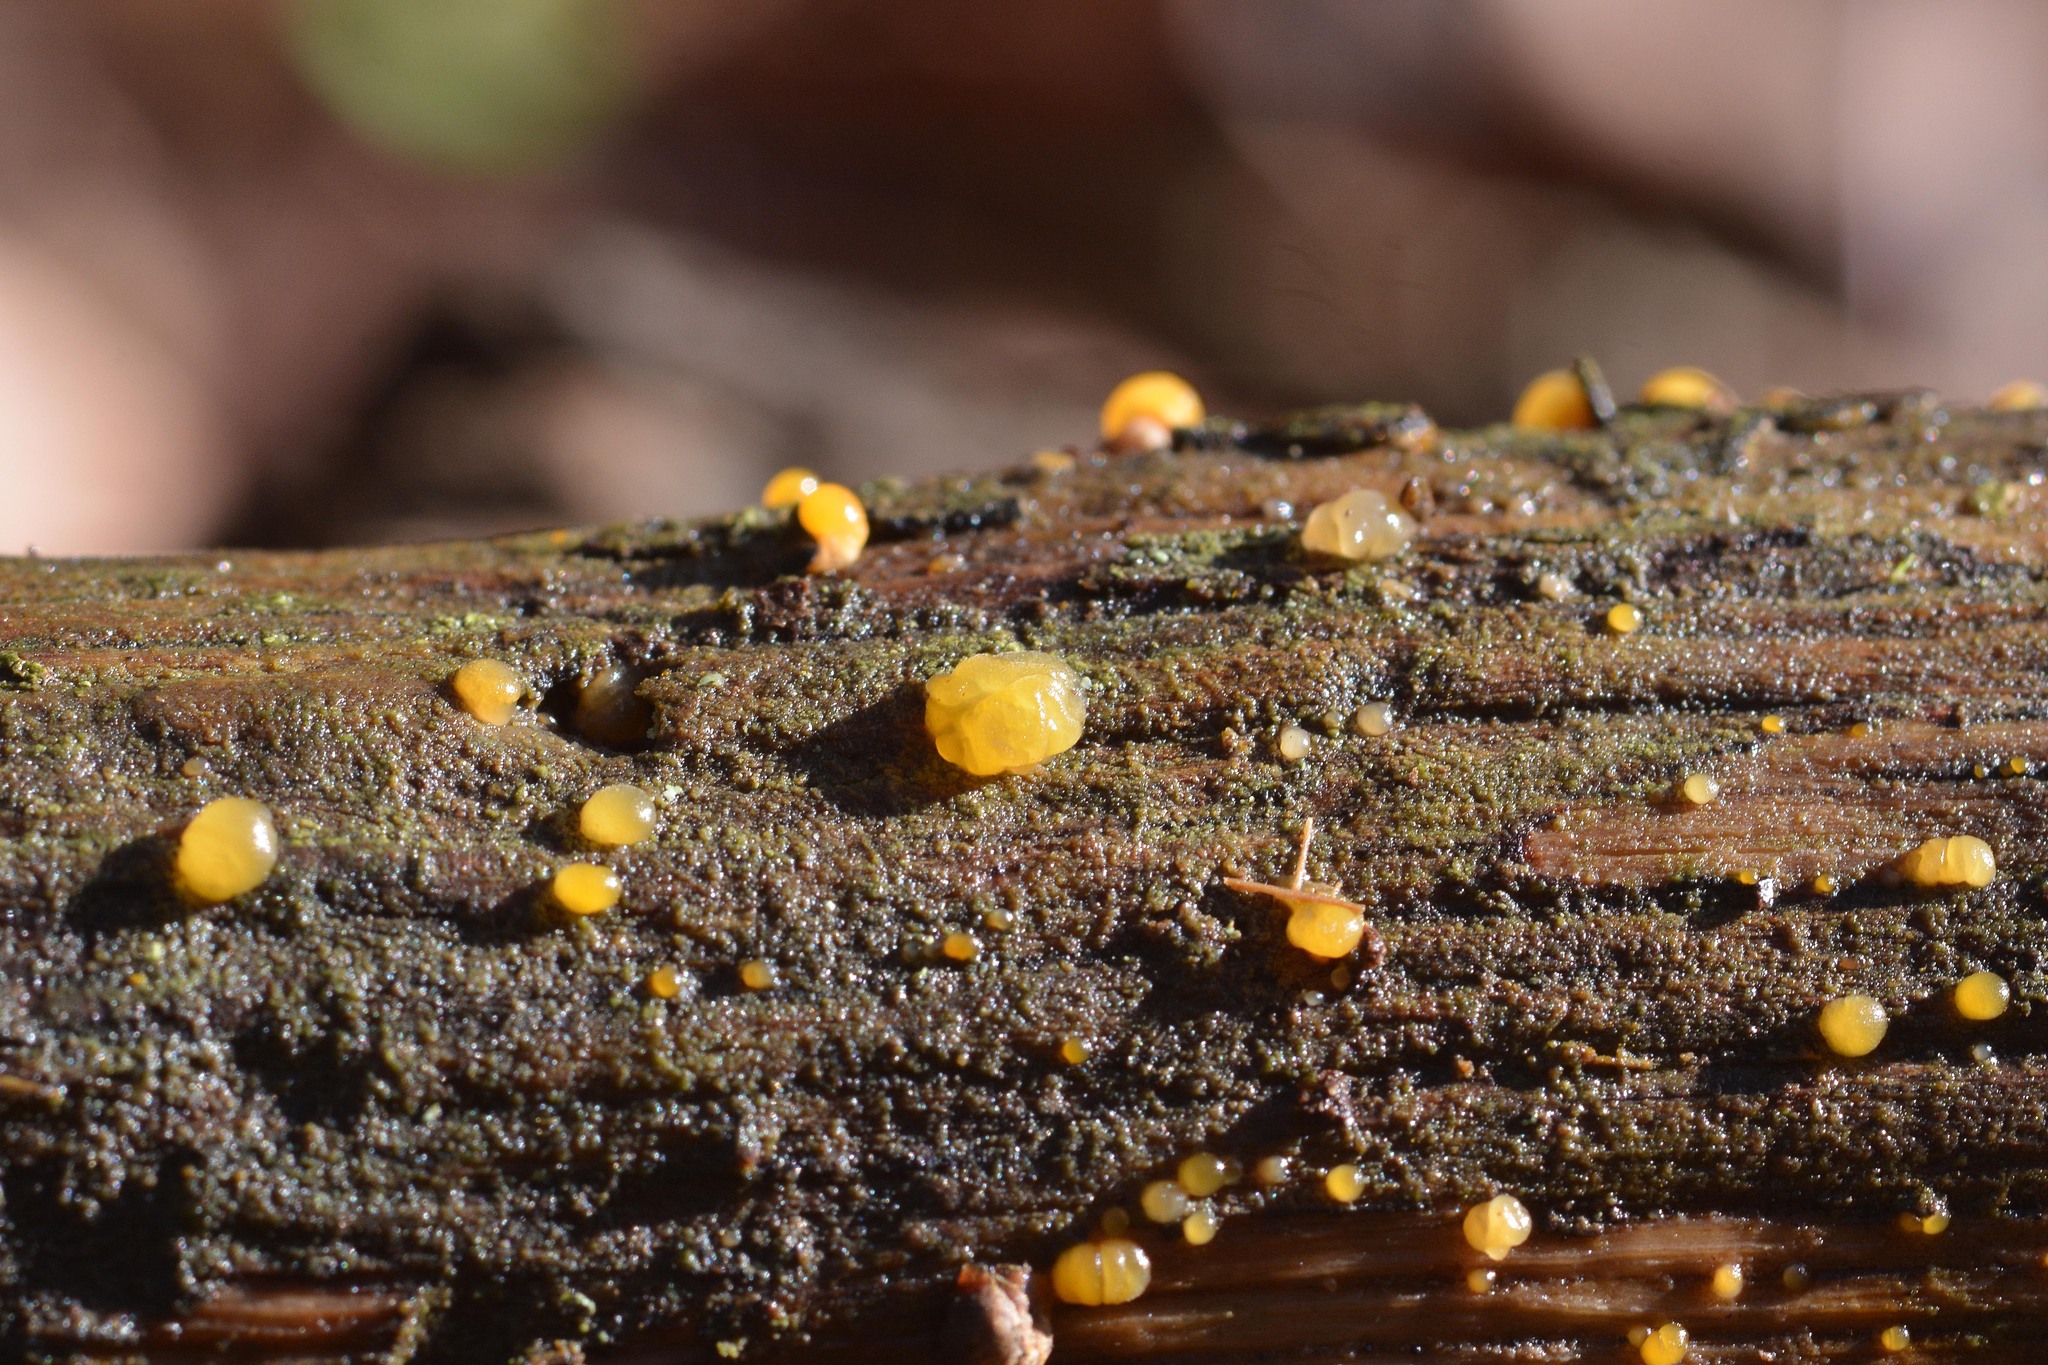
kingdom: Fungi
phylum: Basidiomycota
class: Dacrymycetes
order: Dacrymycetales
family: Dacrymycetaceae
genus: Dacrymyces
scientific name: Dacrymyces stillatus
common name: Common jelly spot
